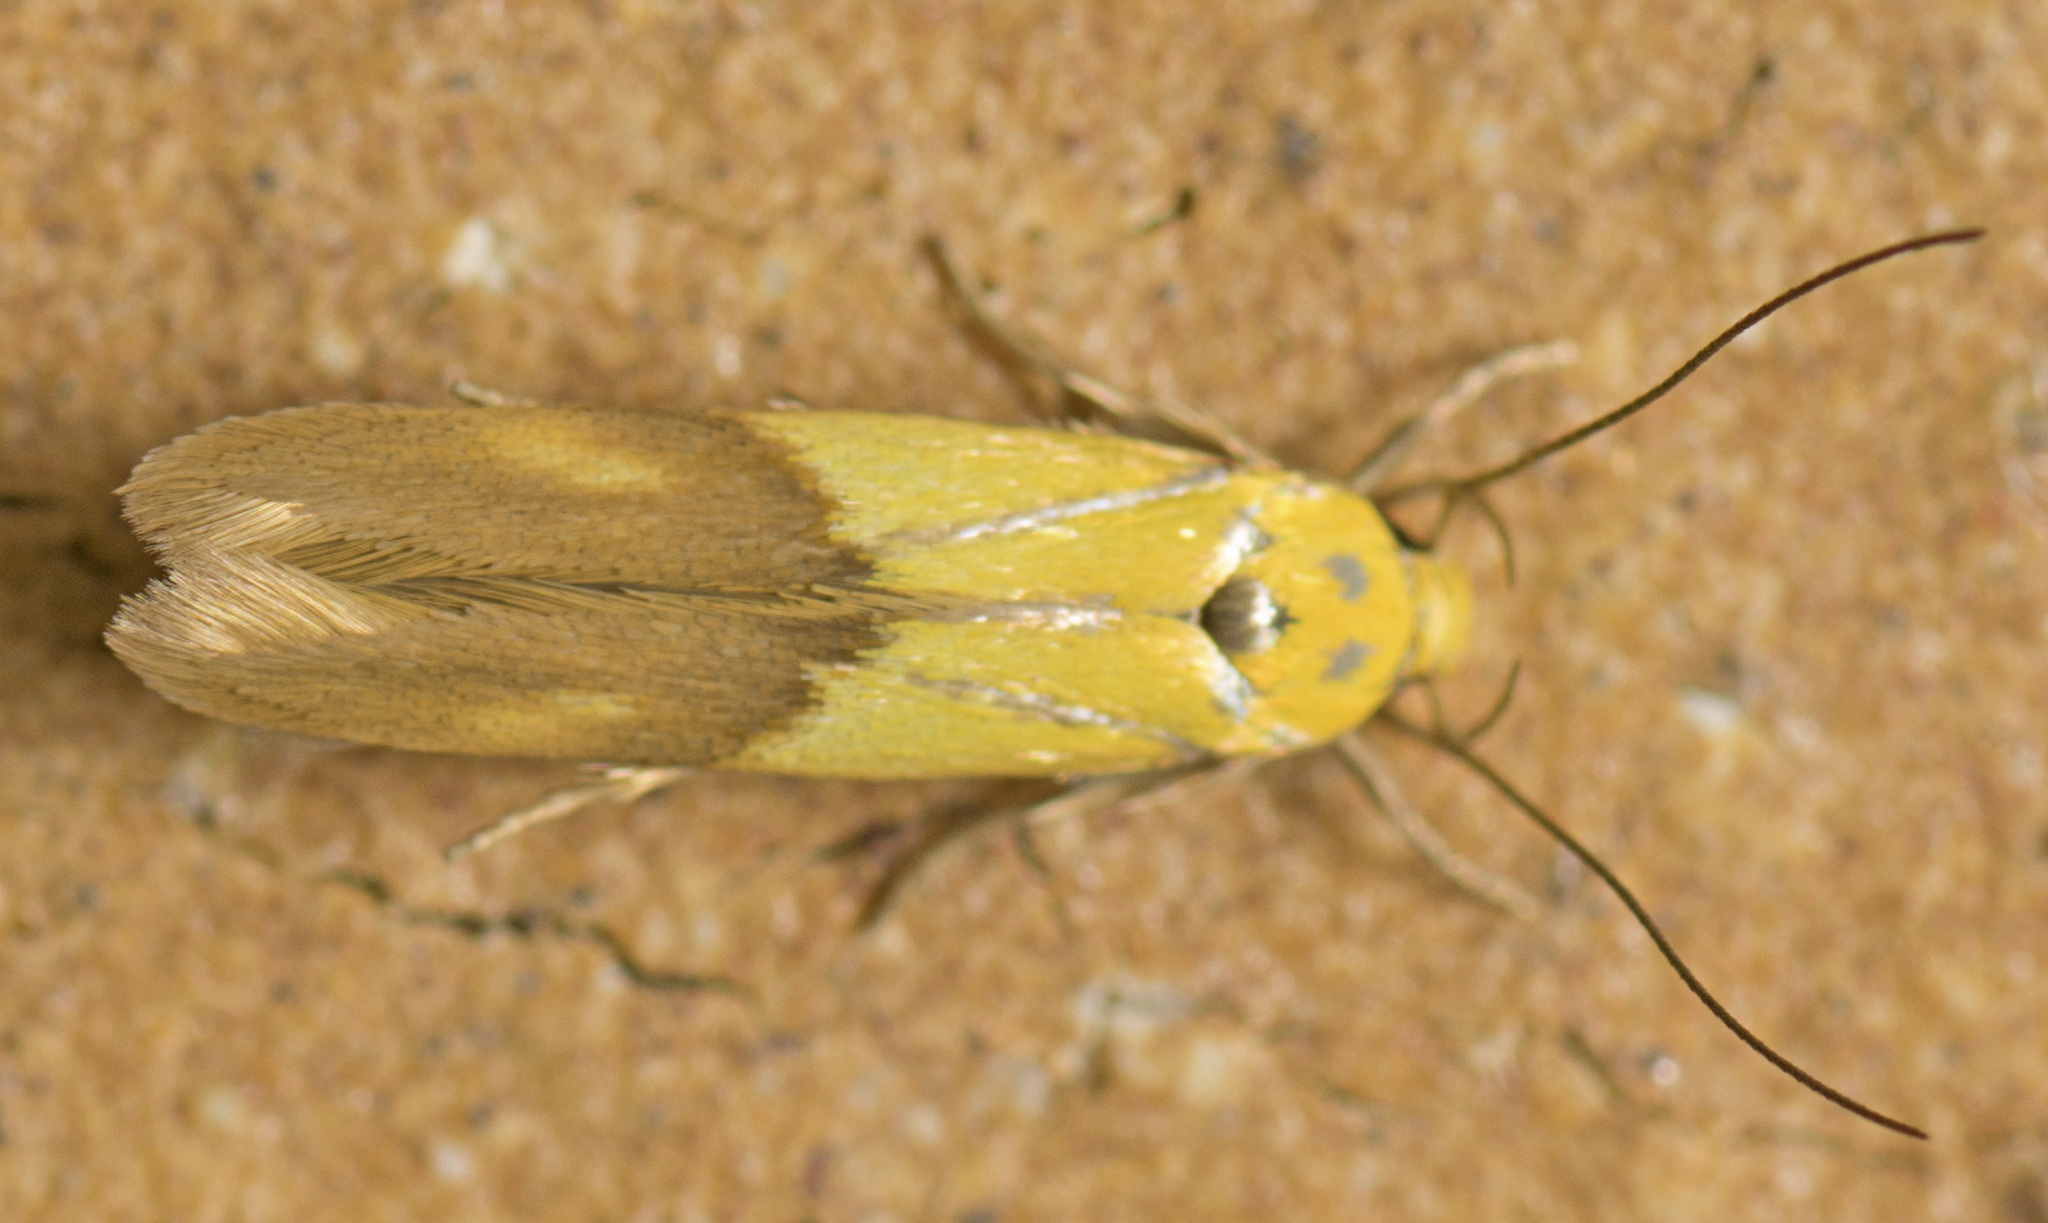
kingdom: Animalia
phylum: Arthropoda
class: Insecta
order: Lepidoptera
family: Stathmopodidae
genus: Stathmopoda
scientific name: Stathmopoda auriferella
